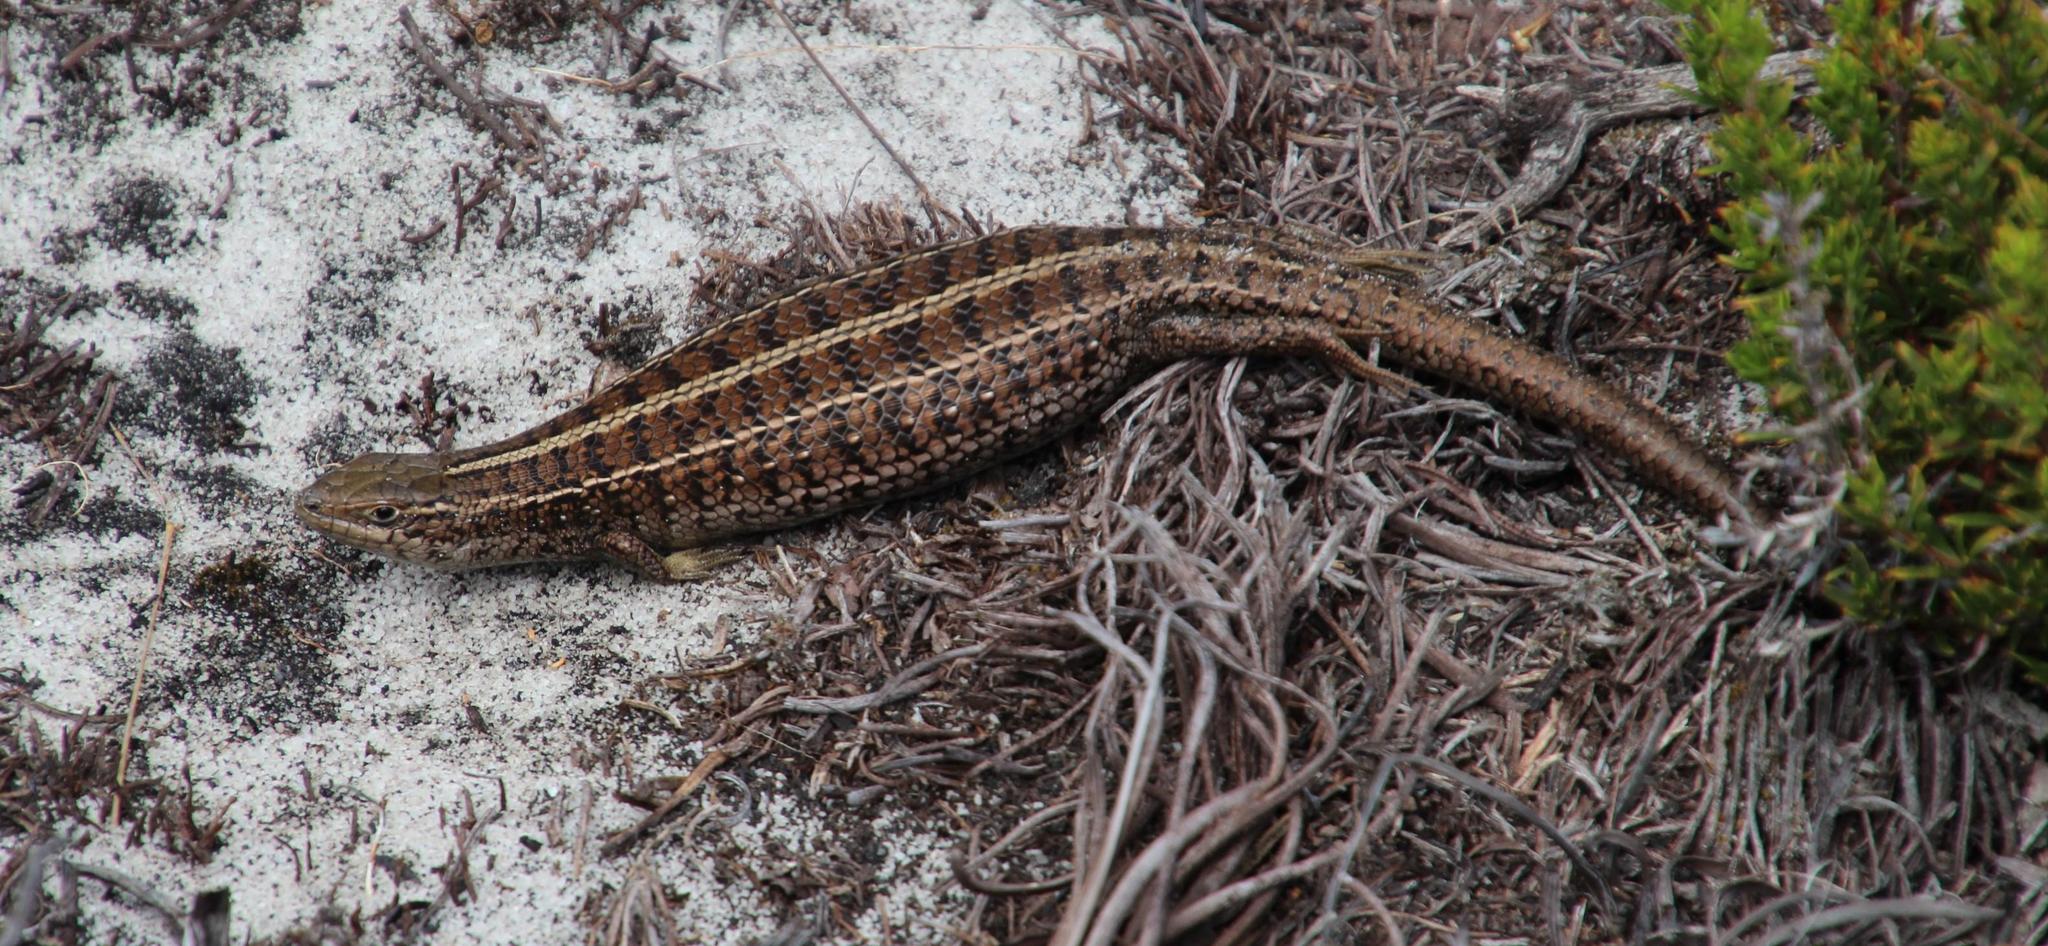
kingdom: Animalia
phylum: Chordata
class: Squamata
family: Scincidae
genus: Trachylepis
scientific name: Trachylepis capensis
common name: Cape skink
